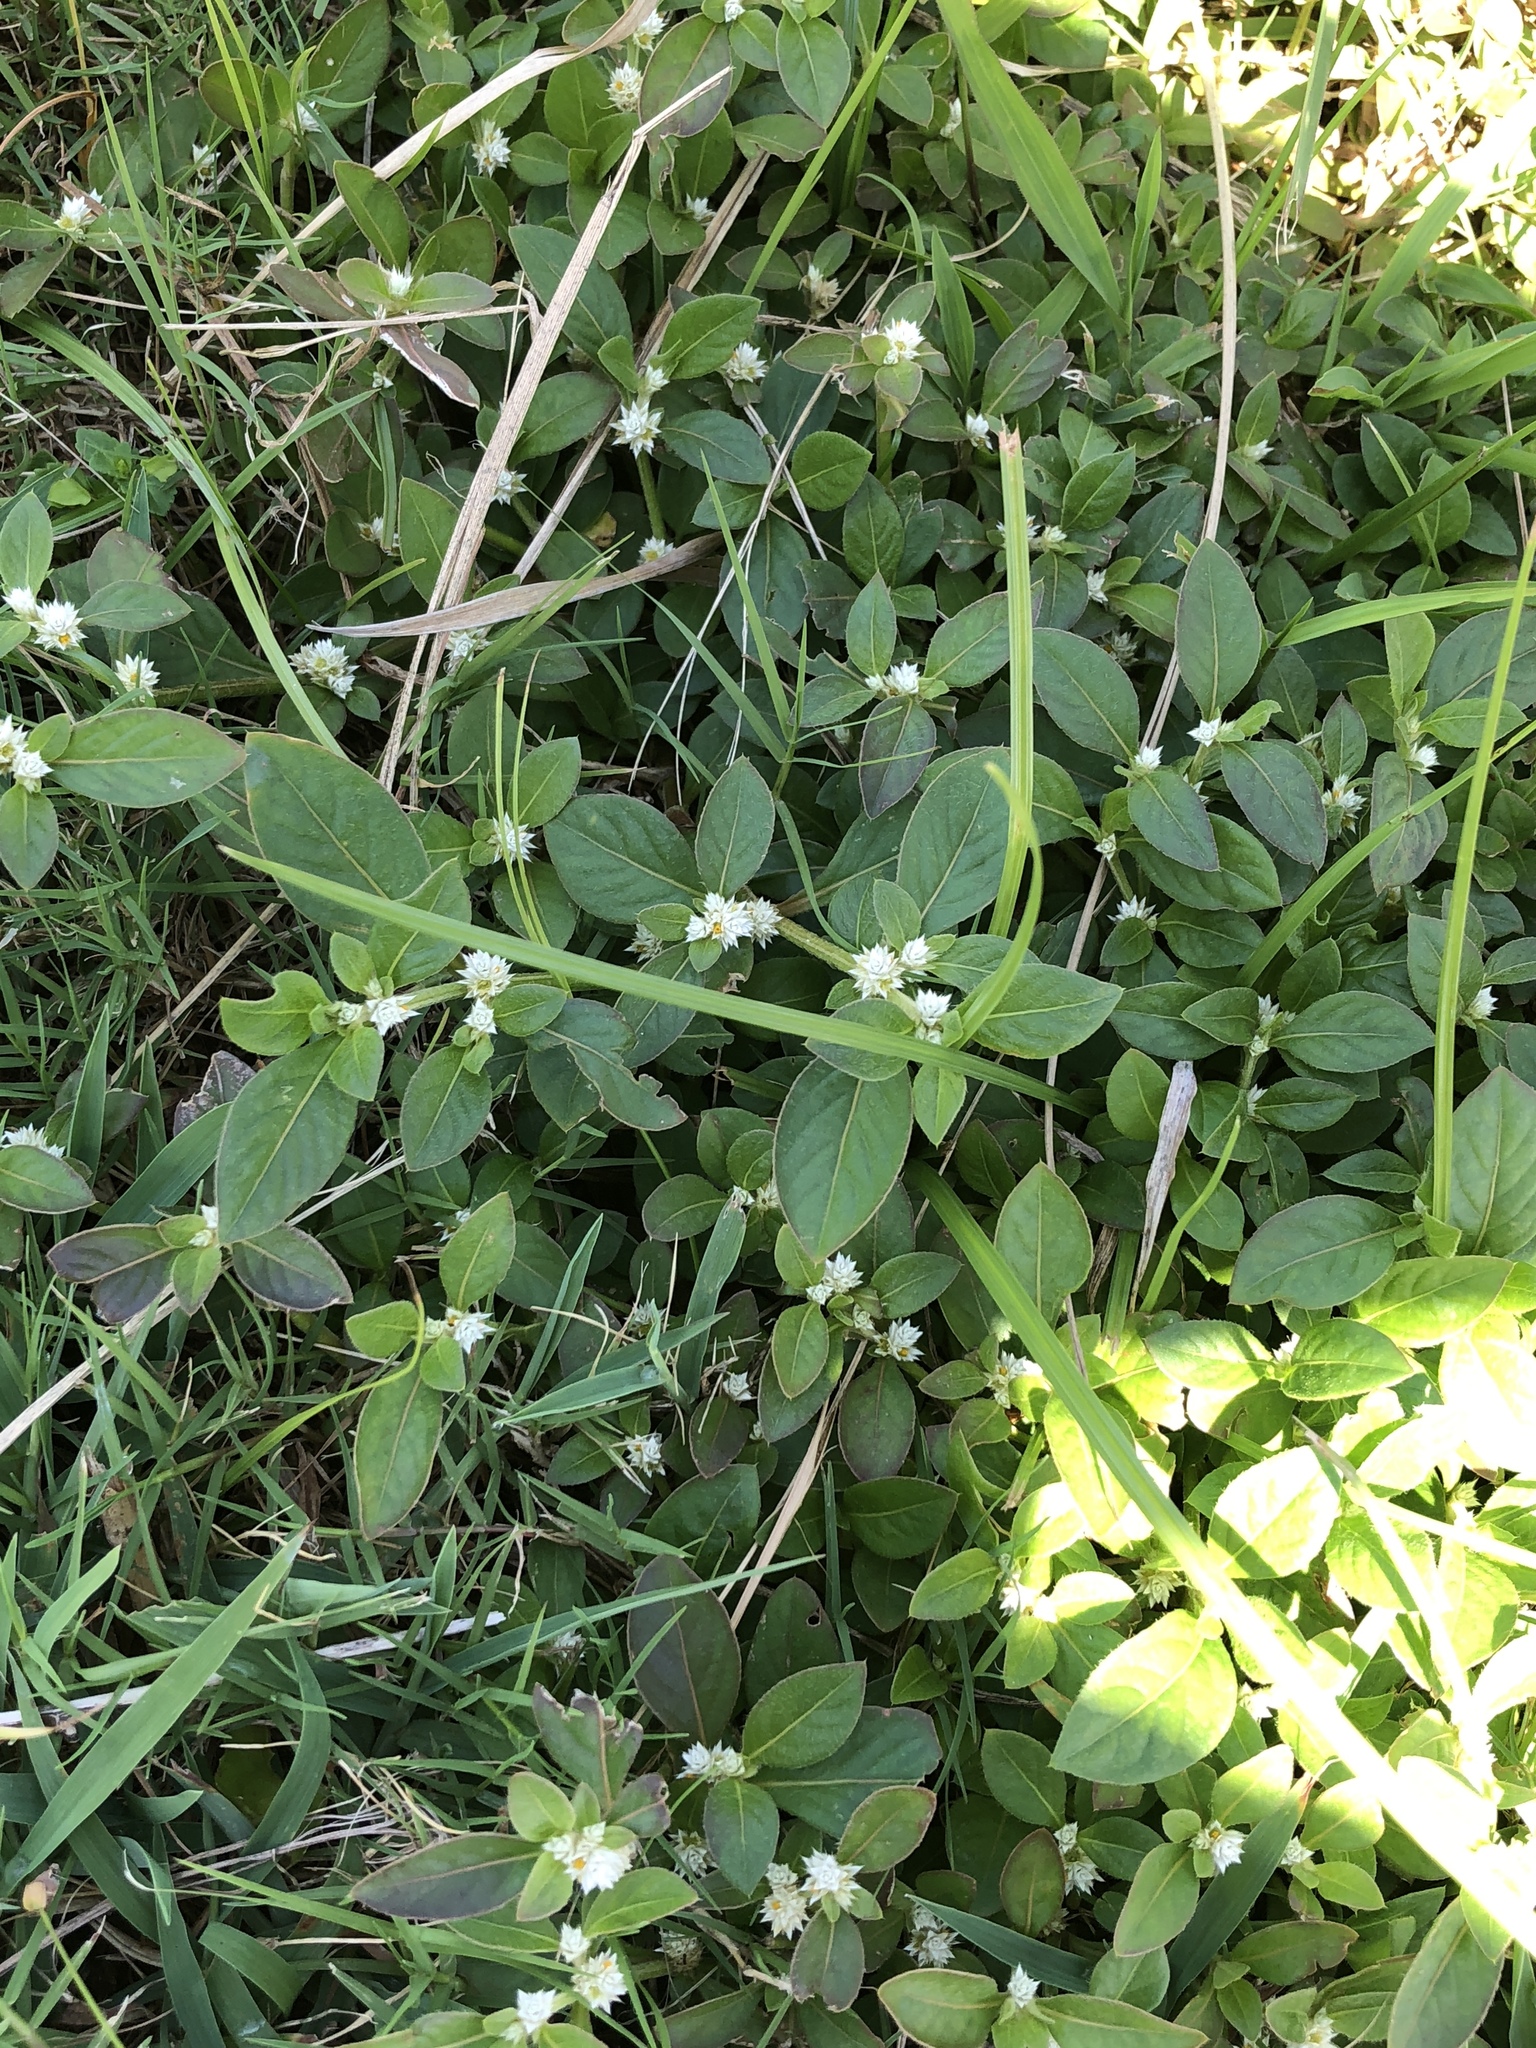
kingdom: Plantae
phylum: Tracheophyta
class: Magnoliopsida
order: Caryophyllales
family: Amaranthaceae
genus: Alternanthera
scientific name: Alternanthera bettzickiana
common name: Calico-plant
